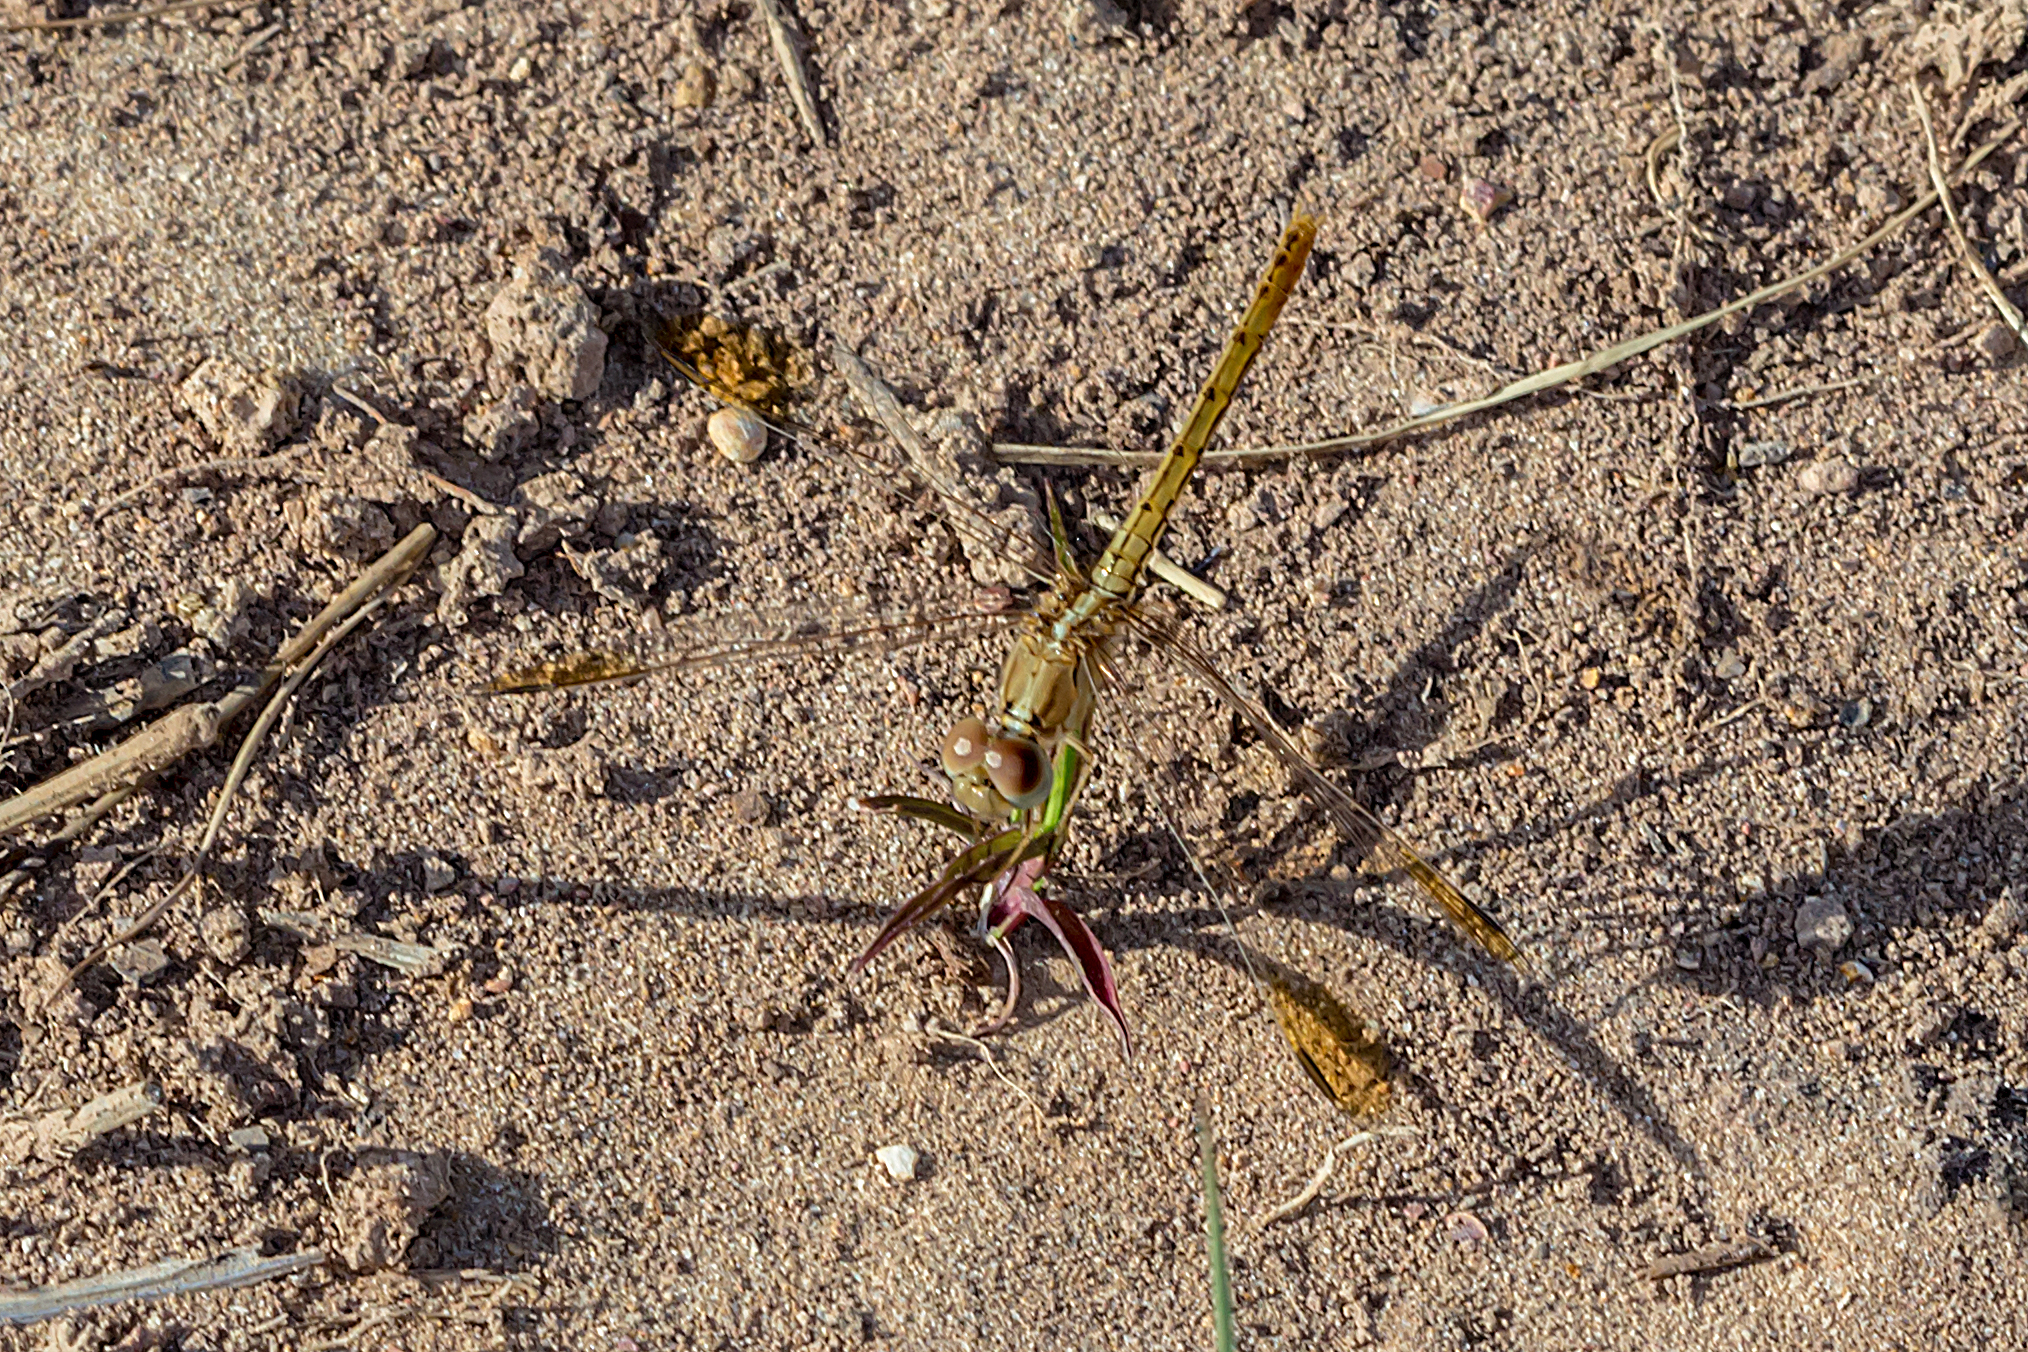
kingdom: Animalia
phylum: Arthropoda
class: Insecta
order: Odonata
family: Libellulidae
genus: Diplacodes
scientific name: Diplacodes haematodes
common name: Scarlet percher
